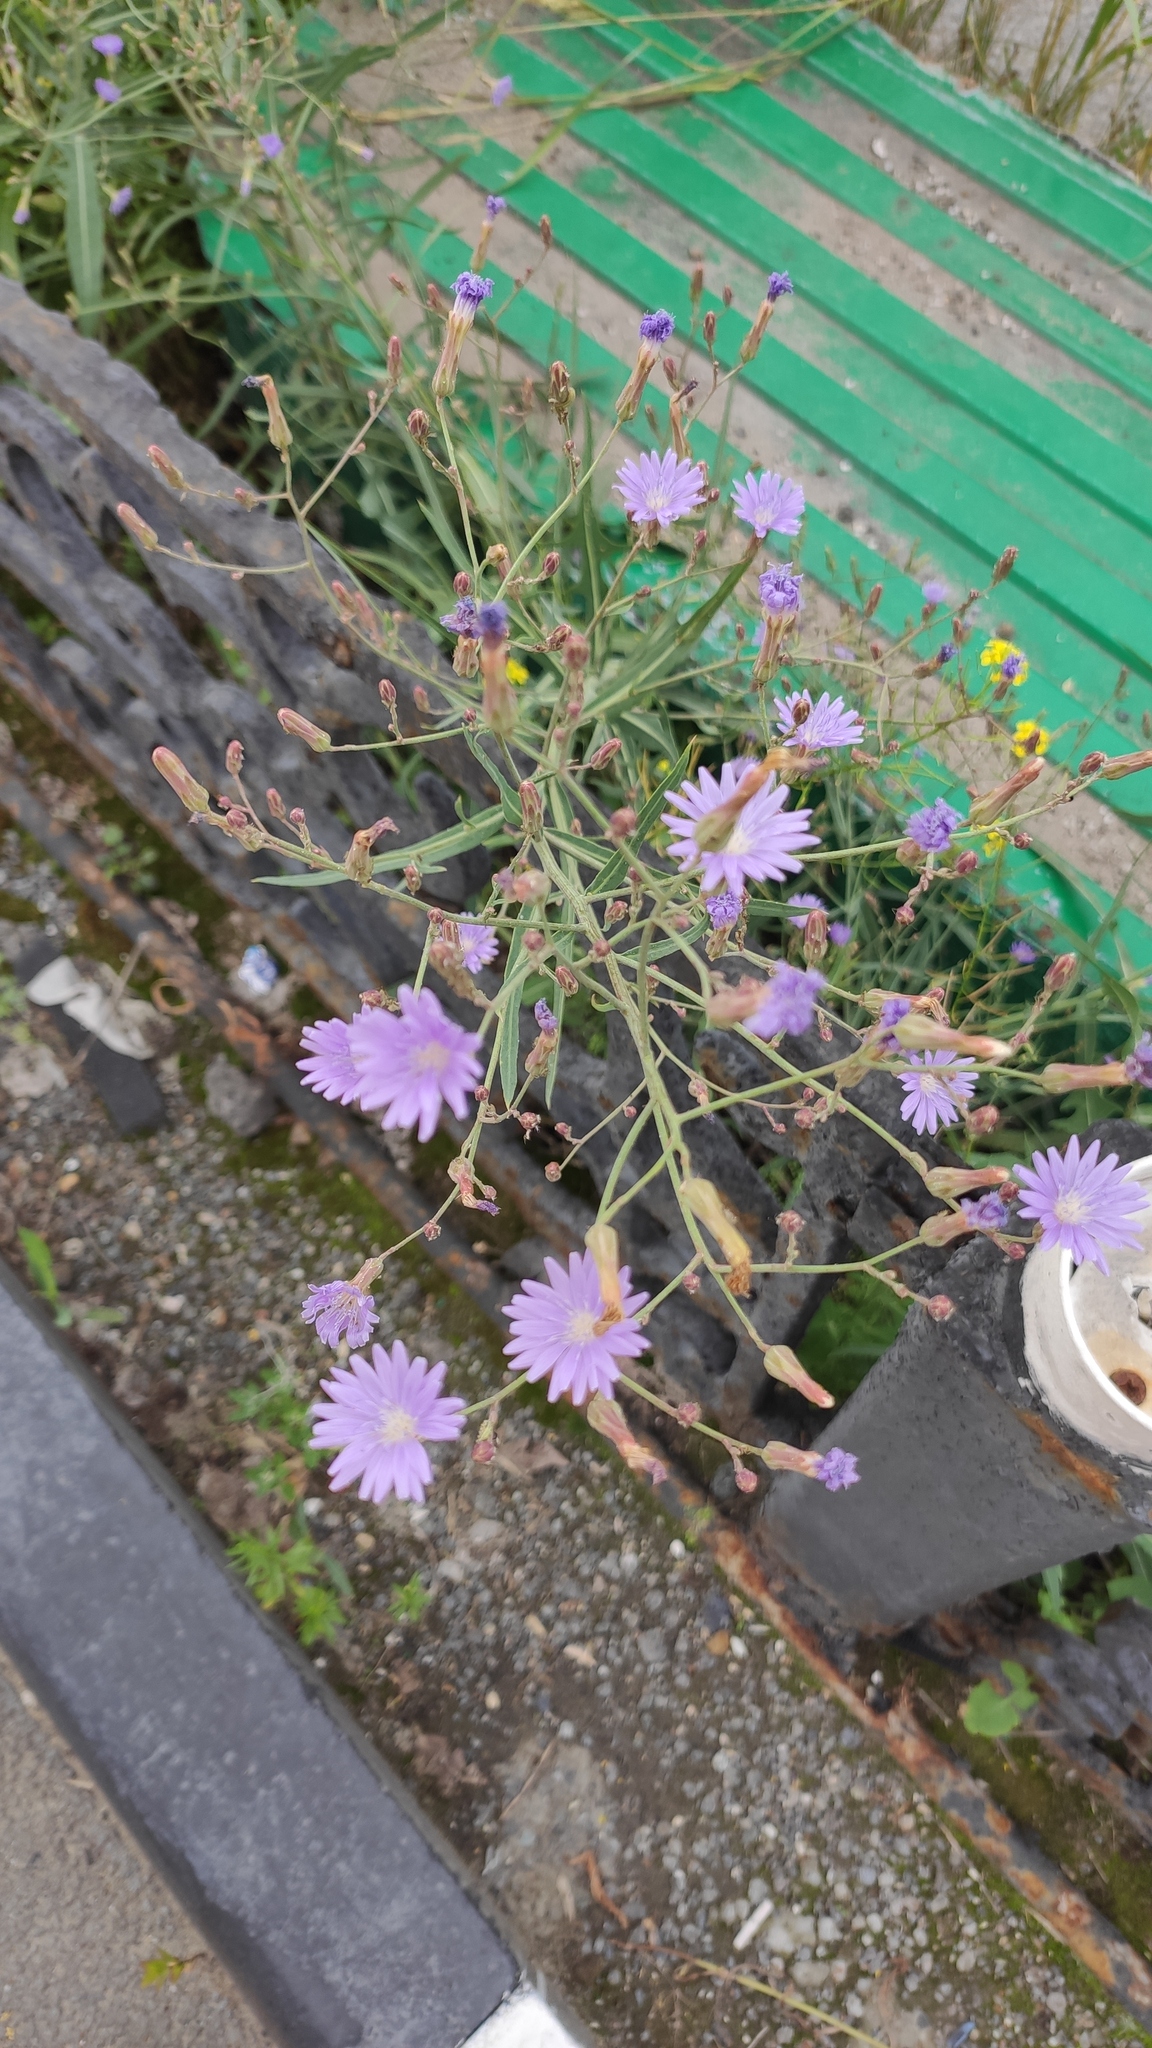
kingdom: Plantae
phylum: Tracheophyta
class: Magnoliopsida
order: Asterales
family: Asteraceae
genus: Lactuca
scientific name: Lactuca tatarica
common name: Blue lettuce
